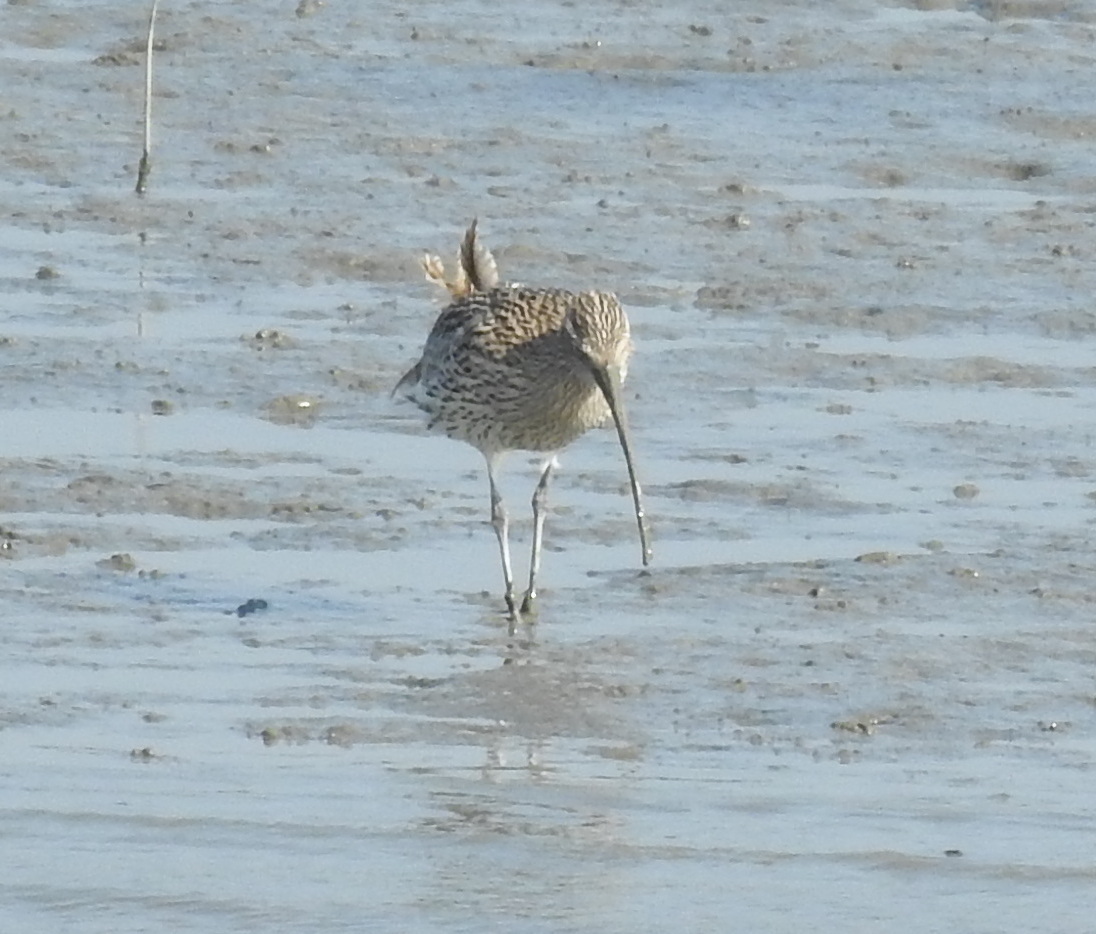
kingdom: Animalia
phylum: Chordata
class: Aves
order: Charadriiformes
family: Scolopacidae
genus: Numenius
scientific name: Numenius arquata
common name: Eurasian curlew
